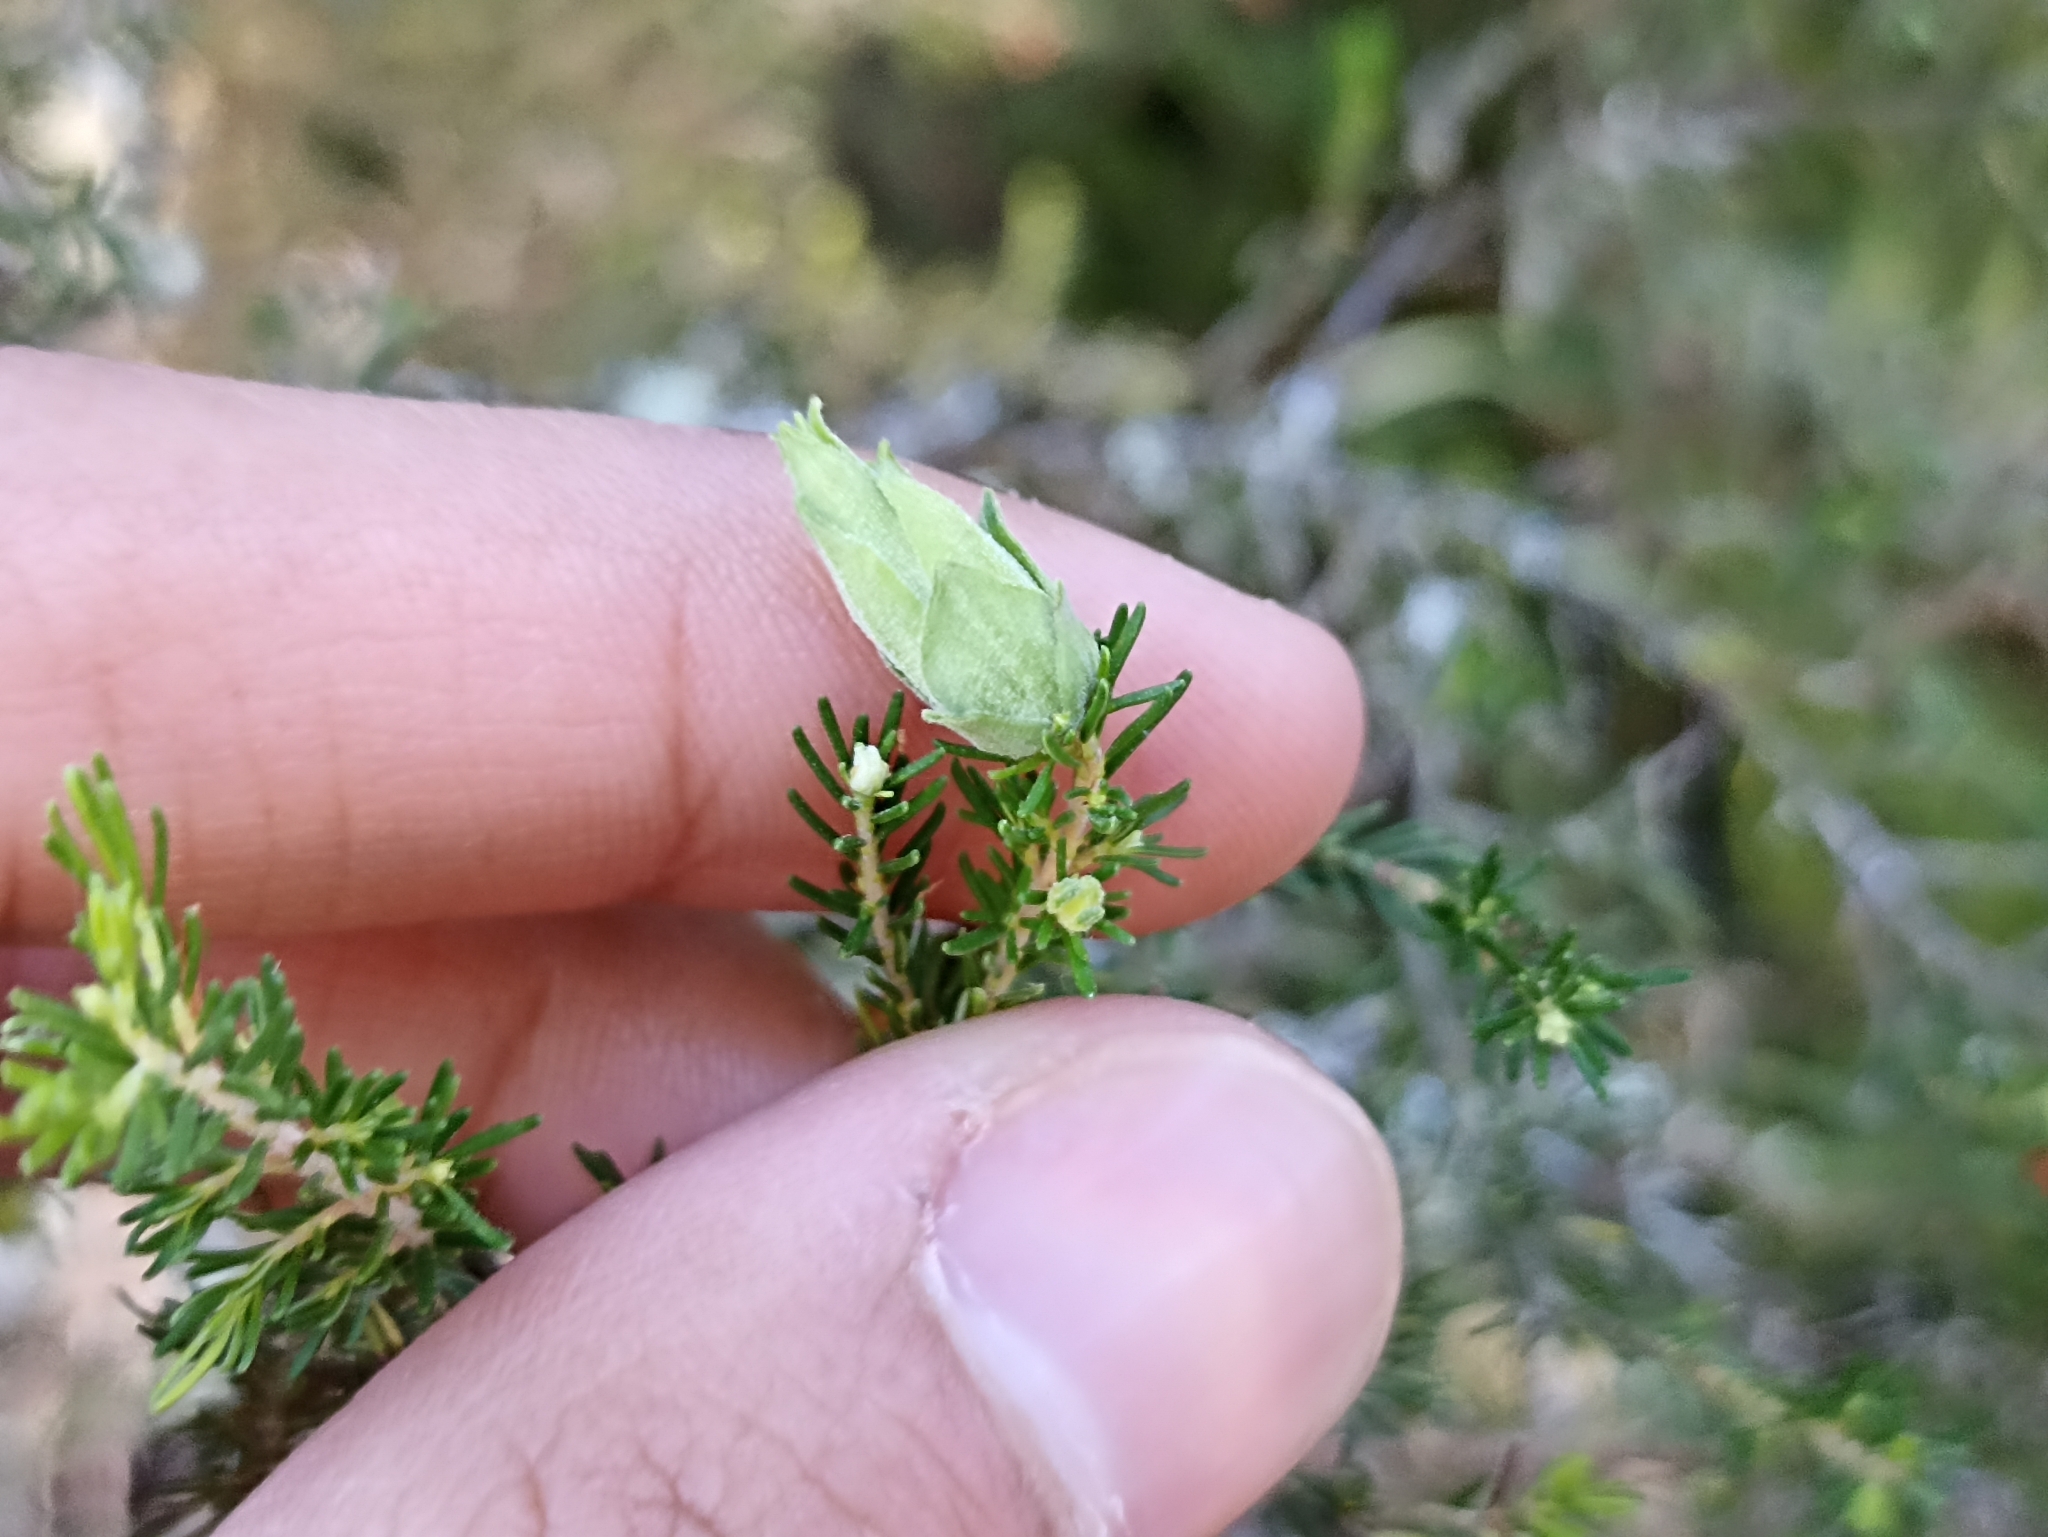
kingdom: Animalia
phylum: Arthropoda
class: Insecta
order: Diptera
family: Cecidomyiidae
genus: Wachtliella
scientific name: Wachtliella ericina
